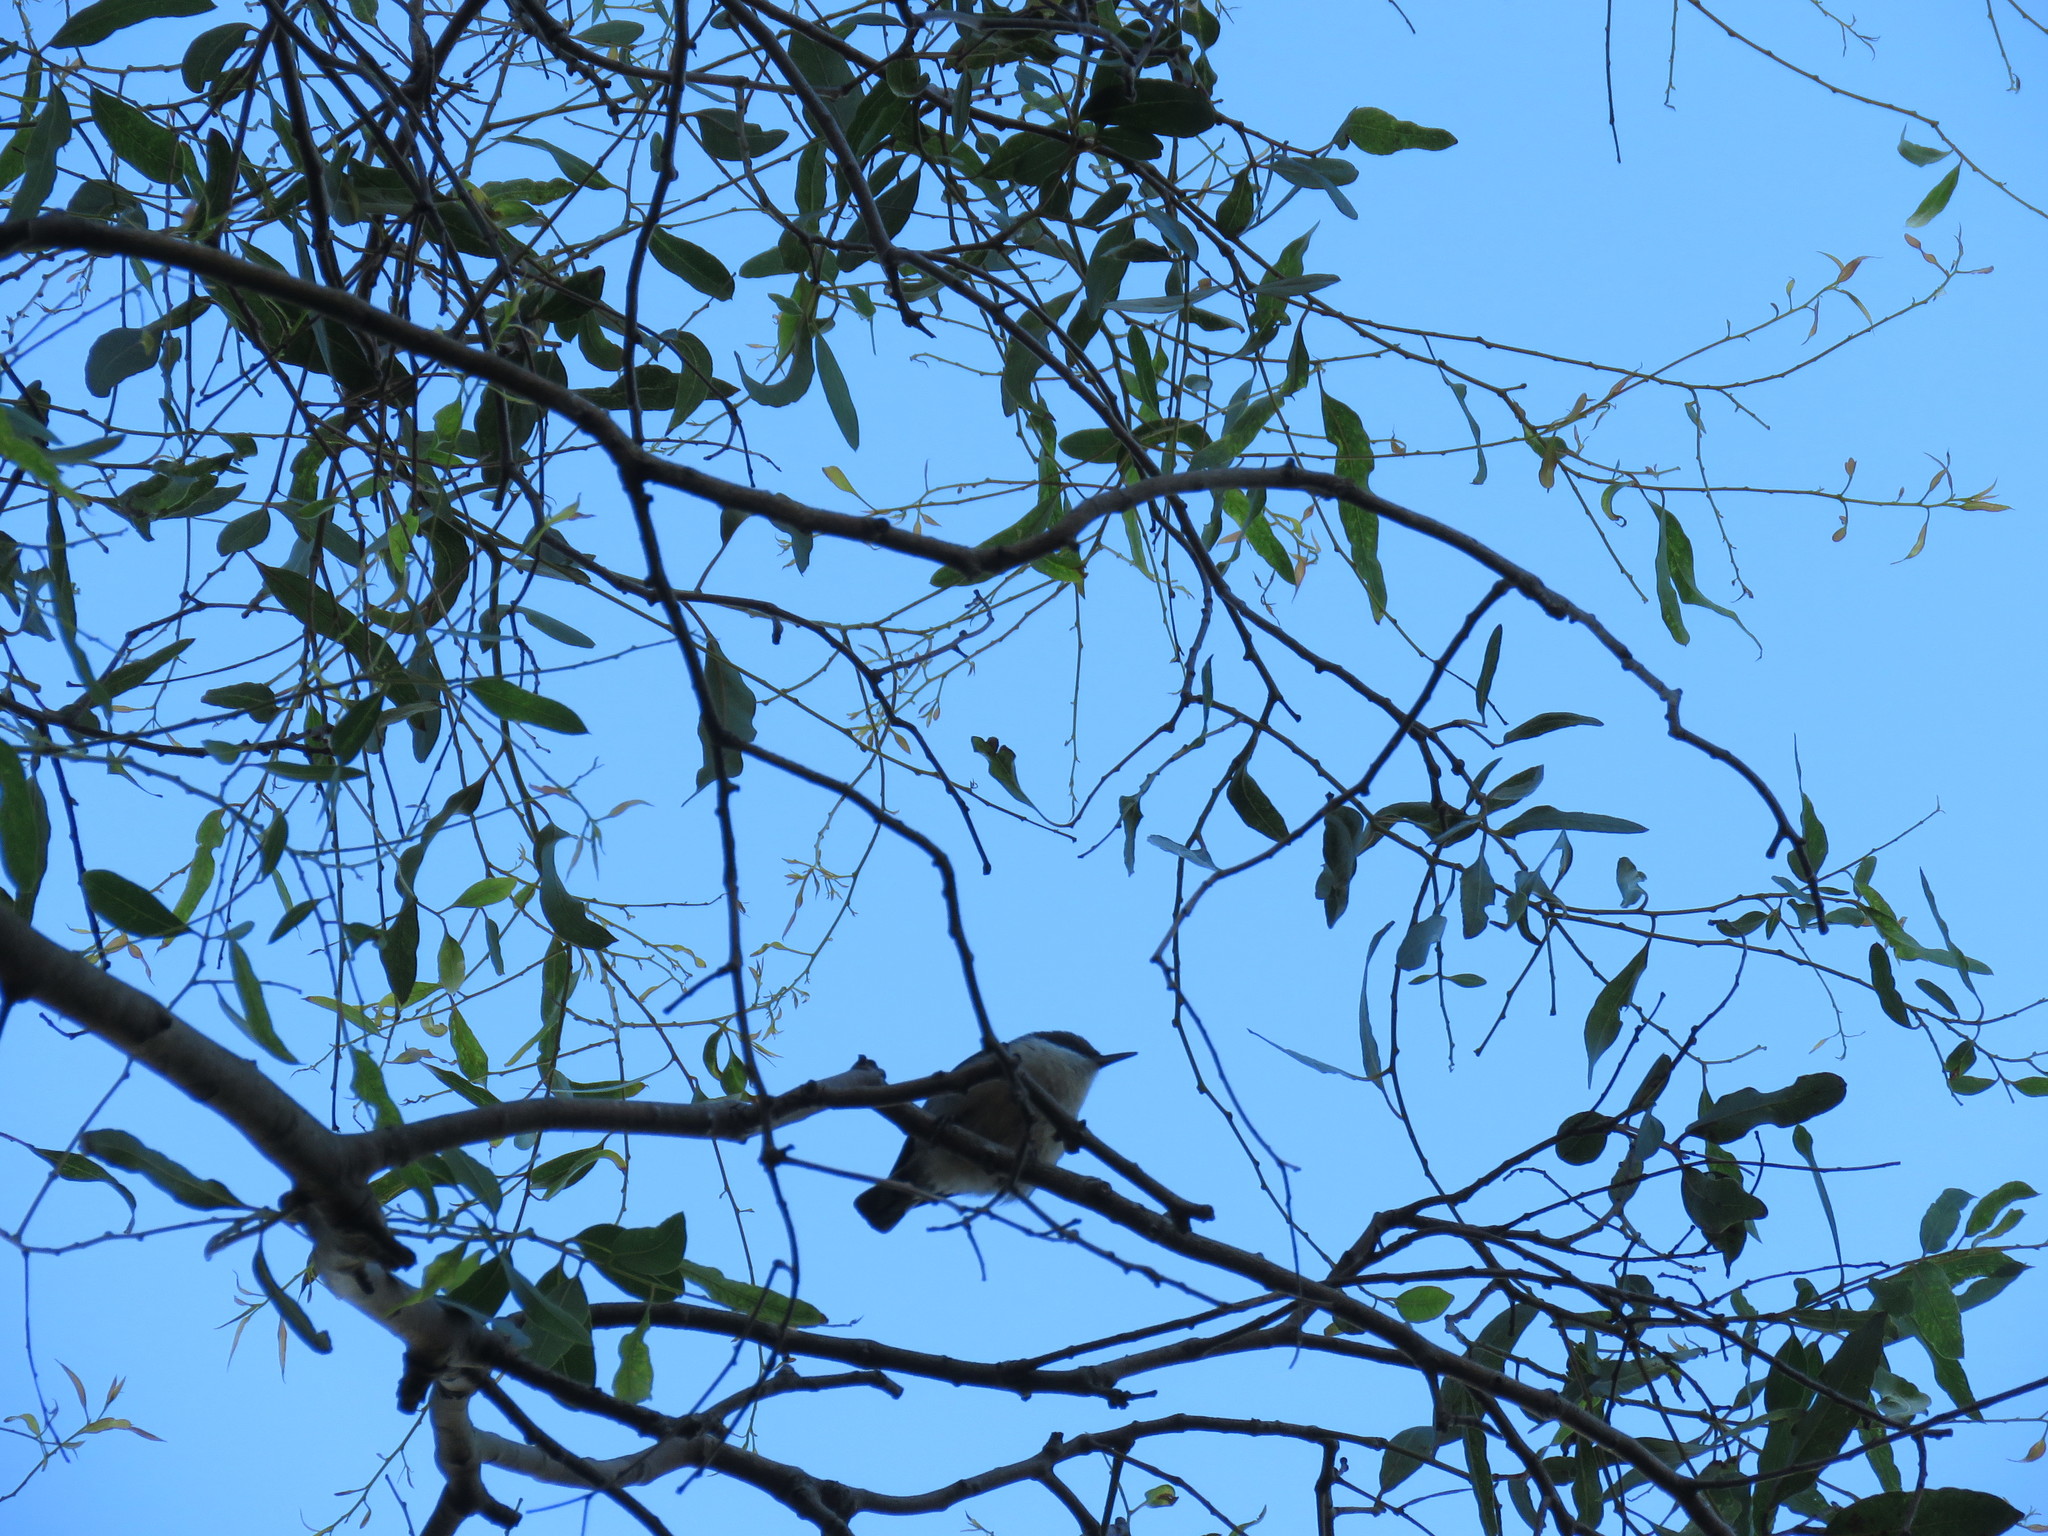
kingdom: Animalia
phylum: Chordata
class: Aves
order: Passeriformes
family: Sittidae
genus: Sitta
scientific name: Sitta pygmaea
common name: Pygmy nuthatch
